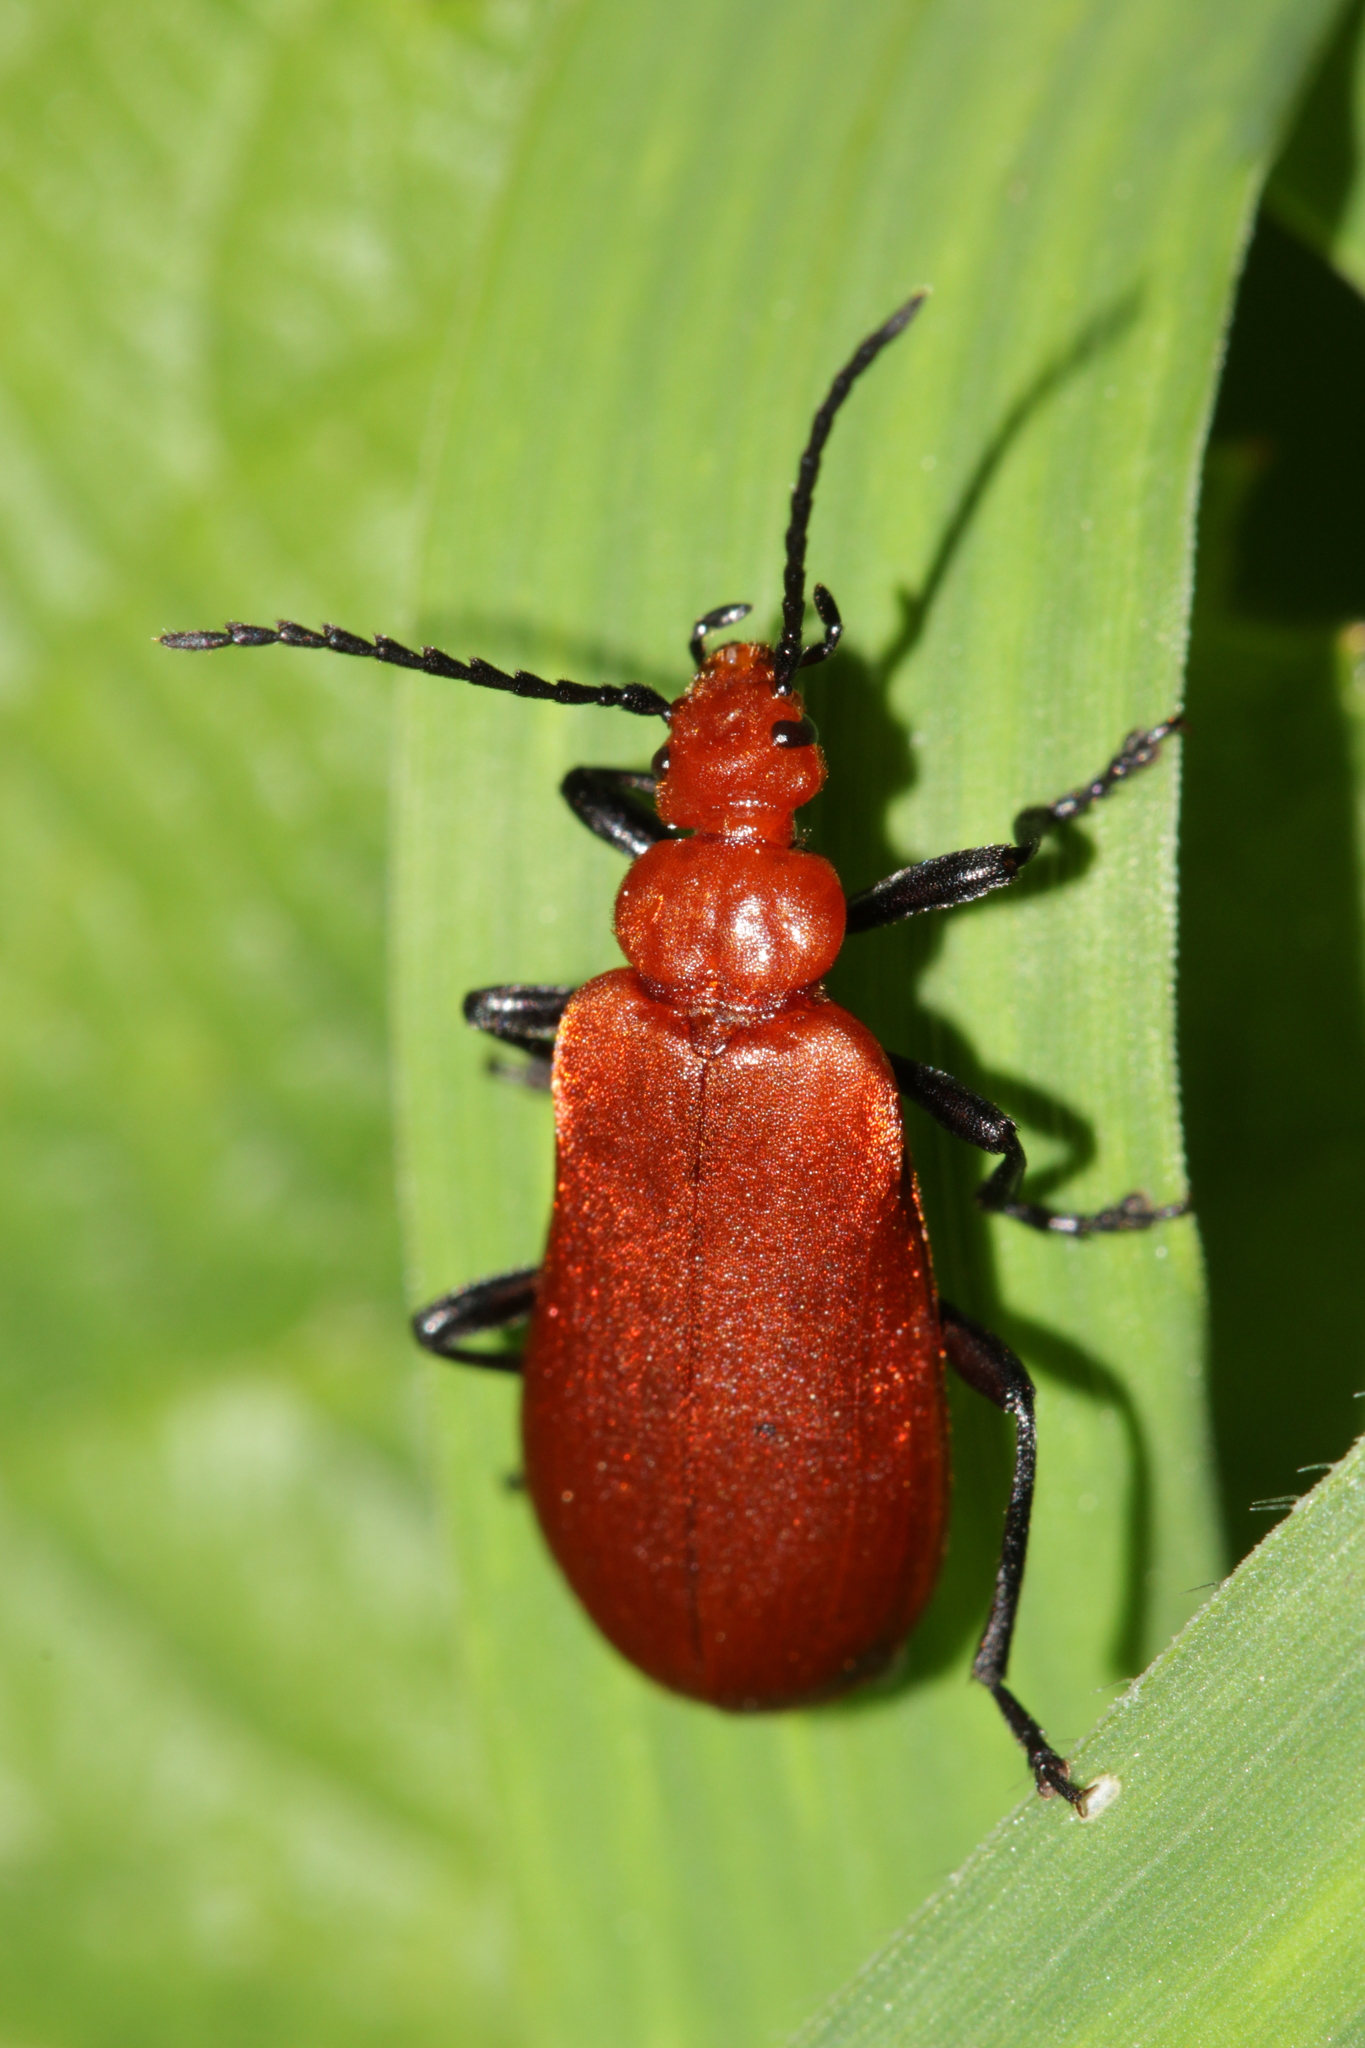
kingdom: Animalia
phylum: Arthropoda
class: Insecta
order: Coleoptera
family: Pyrochroidae
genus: Pyrochroa
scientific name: Pyrochroa serraticornis
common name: Red-headed cardinal beetle
